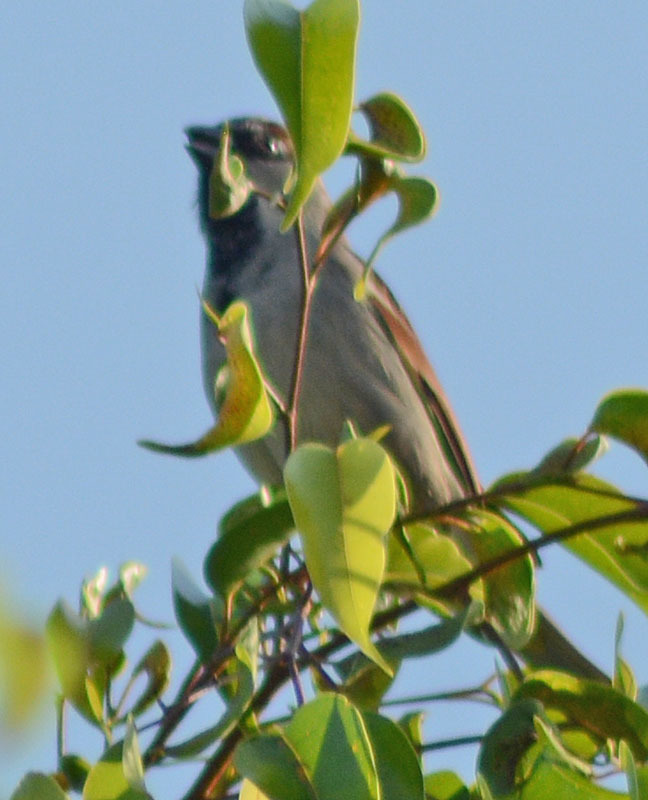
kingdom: Animalia
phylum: Chordata
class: Aves
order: Passeriformes
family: Passeridae
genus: Passer
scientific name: Passer domesticus
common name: House sparrow
